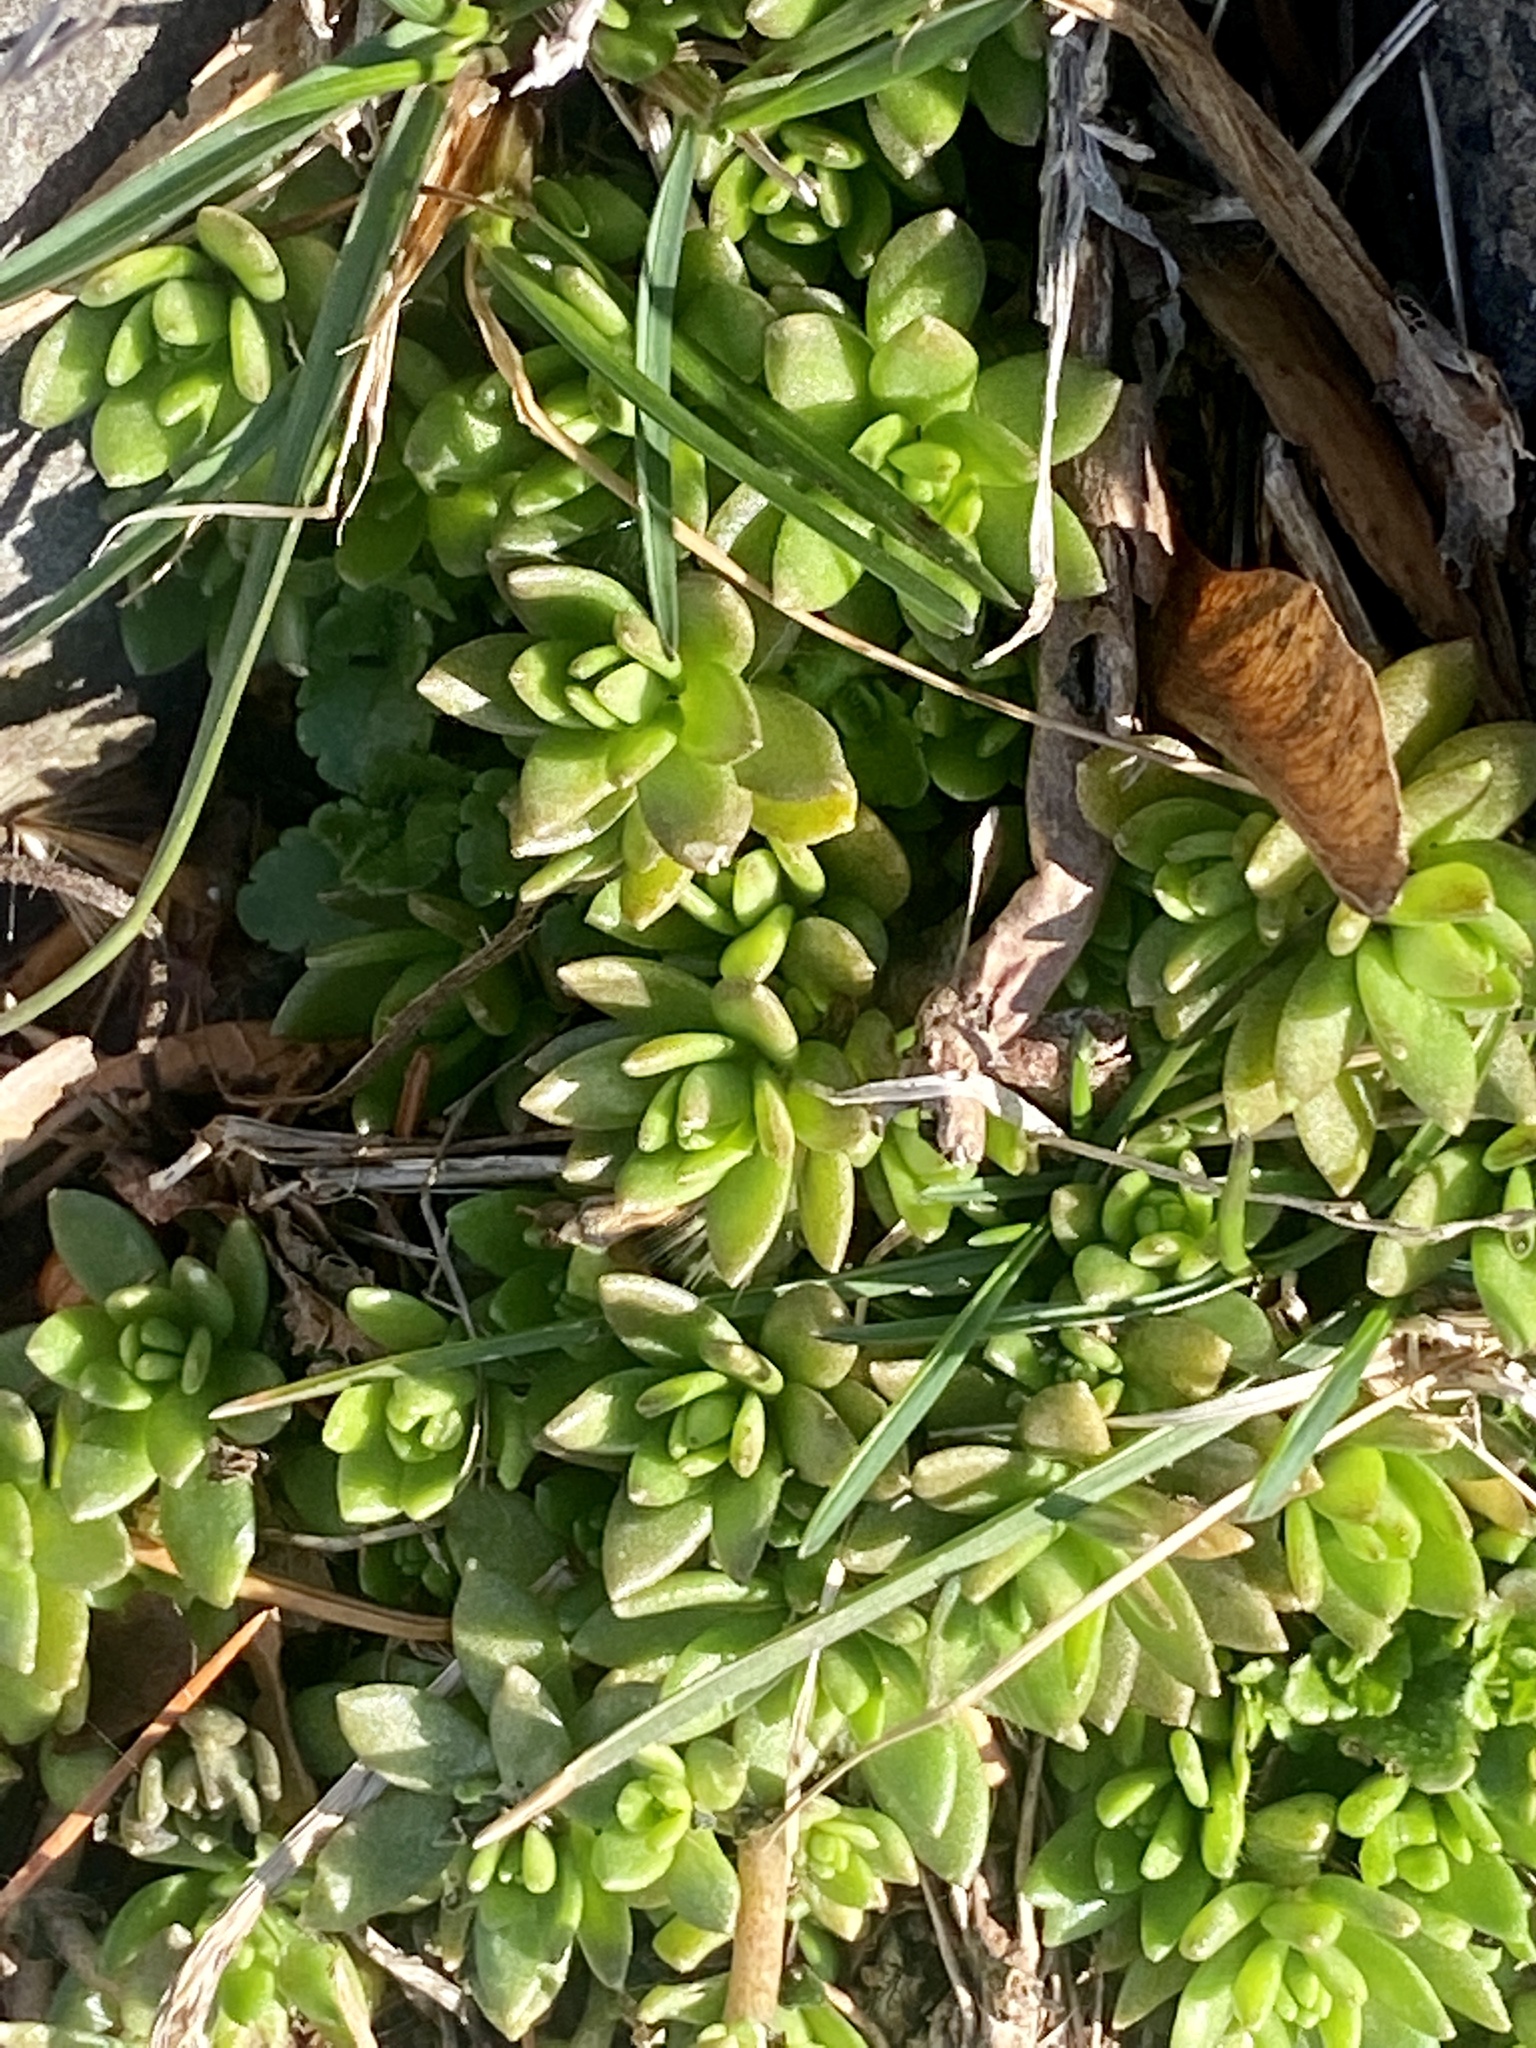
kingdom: Plantae
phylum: Tracheophyta
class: Magnoliopsida
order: Saxifragales
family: Crassulaceae
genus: Sedum
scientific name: Sedum sarmentosum
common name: Stringy stonecrop
